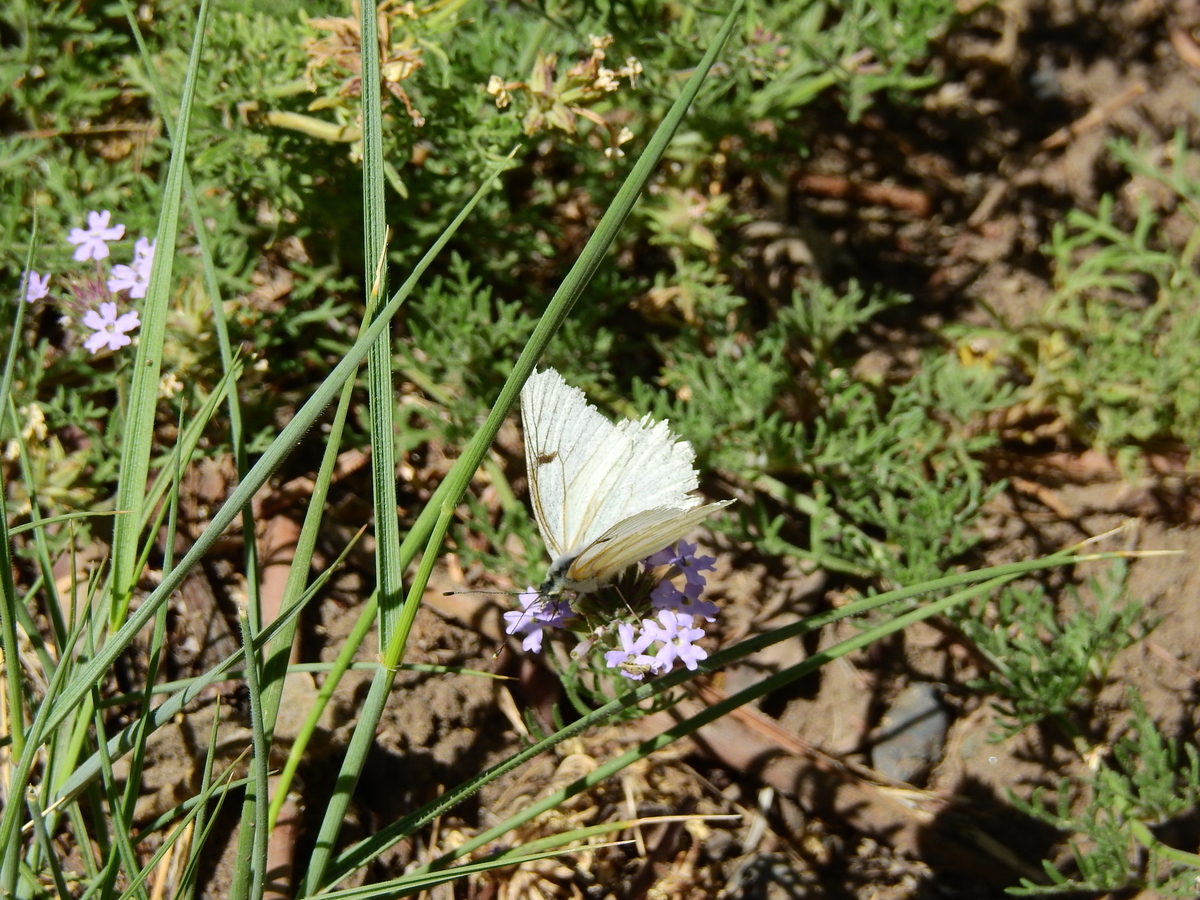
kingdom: Animalia
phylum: Arthropoda
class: Insecta
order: Lepidoptera
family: Pieridae
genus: Tatochila
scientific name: Tatochila mercedis
